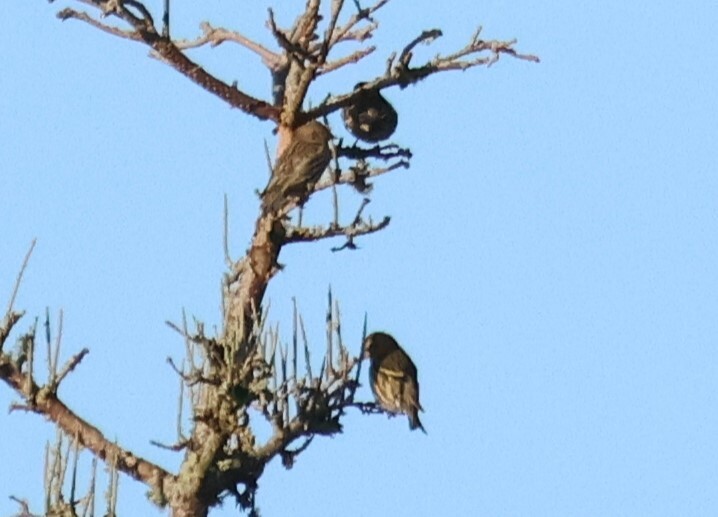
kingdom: Animalia
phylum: Chordata
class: Aves
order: Passeriformes
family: Fringillidae
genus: Spinus
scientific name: Spinus pinus
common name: Pine siskin
